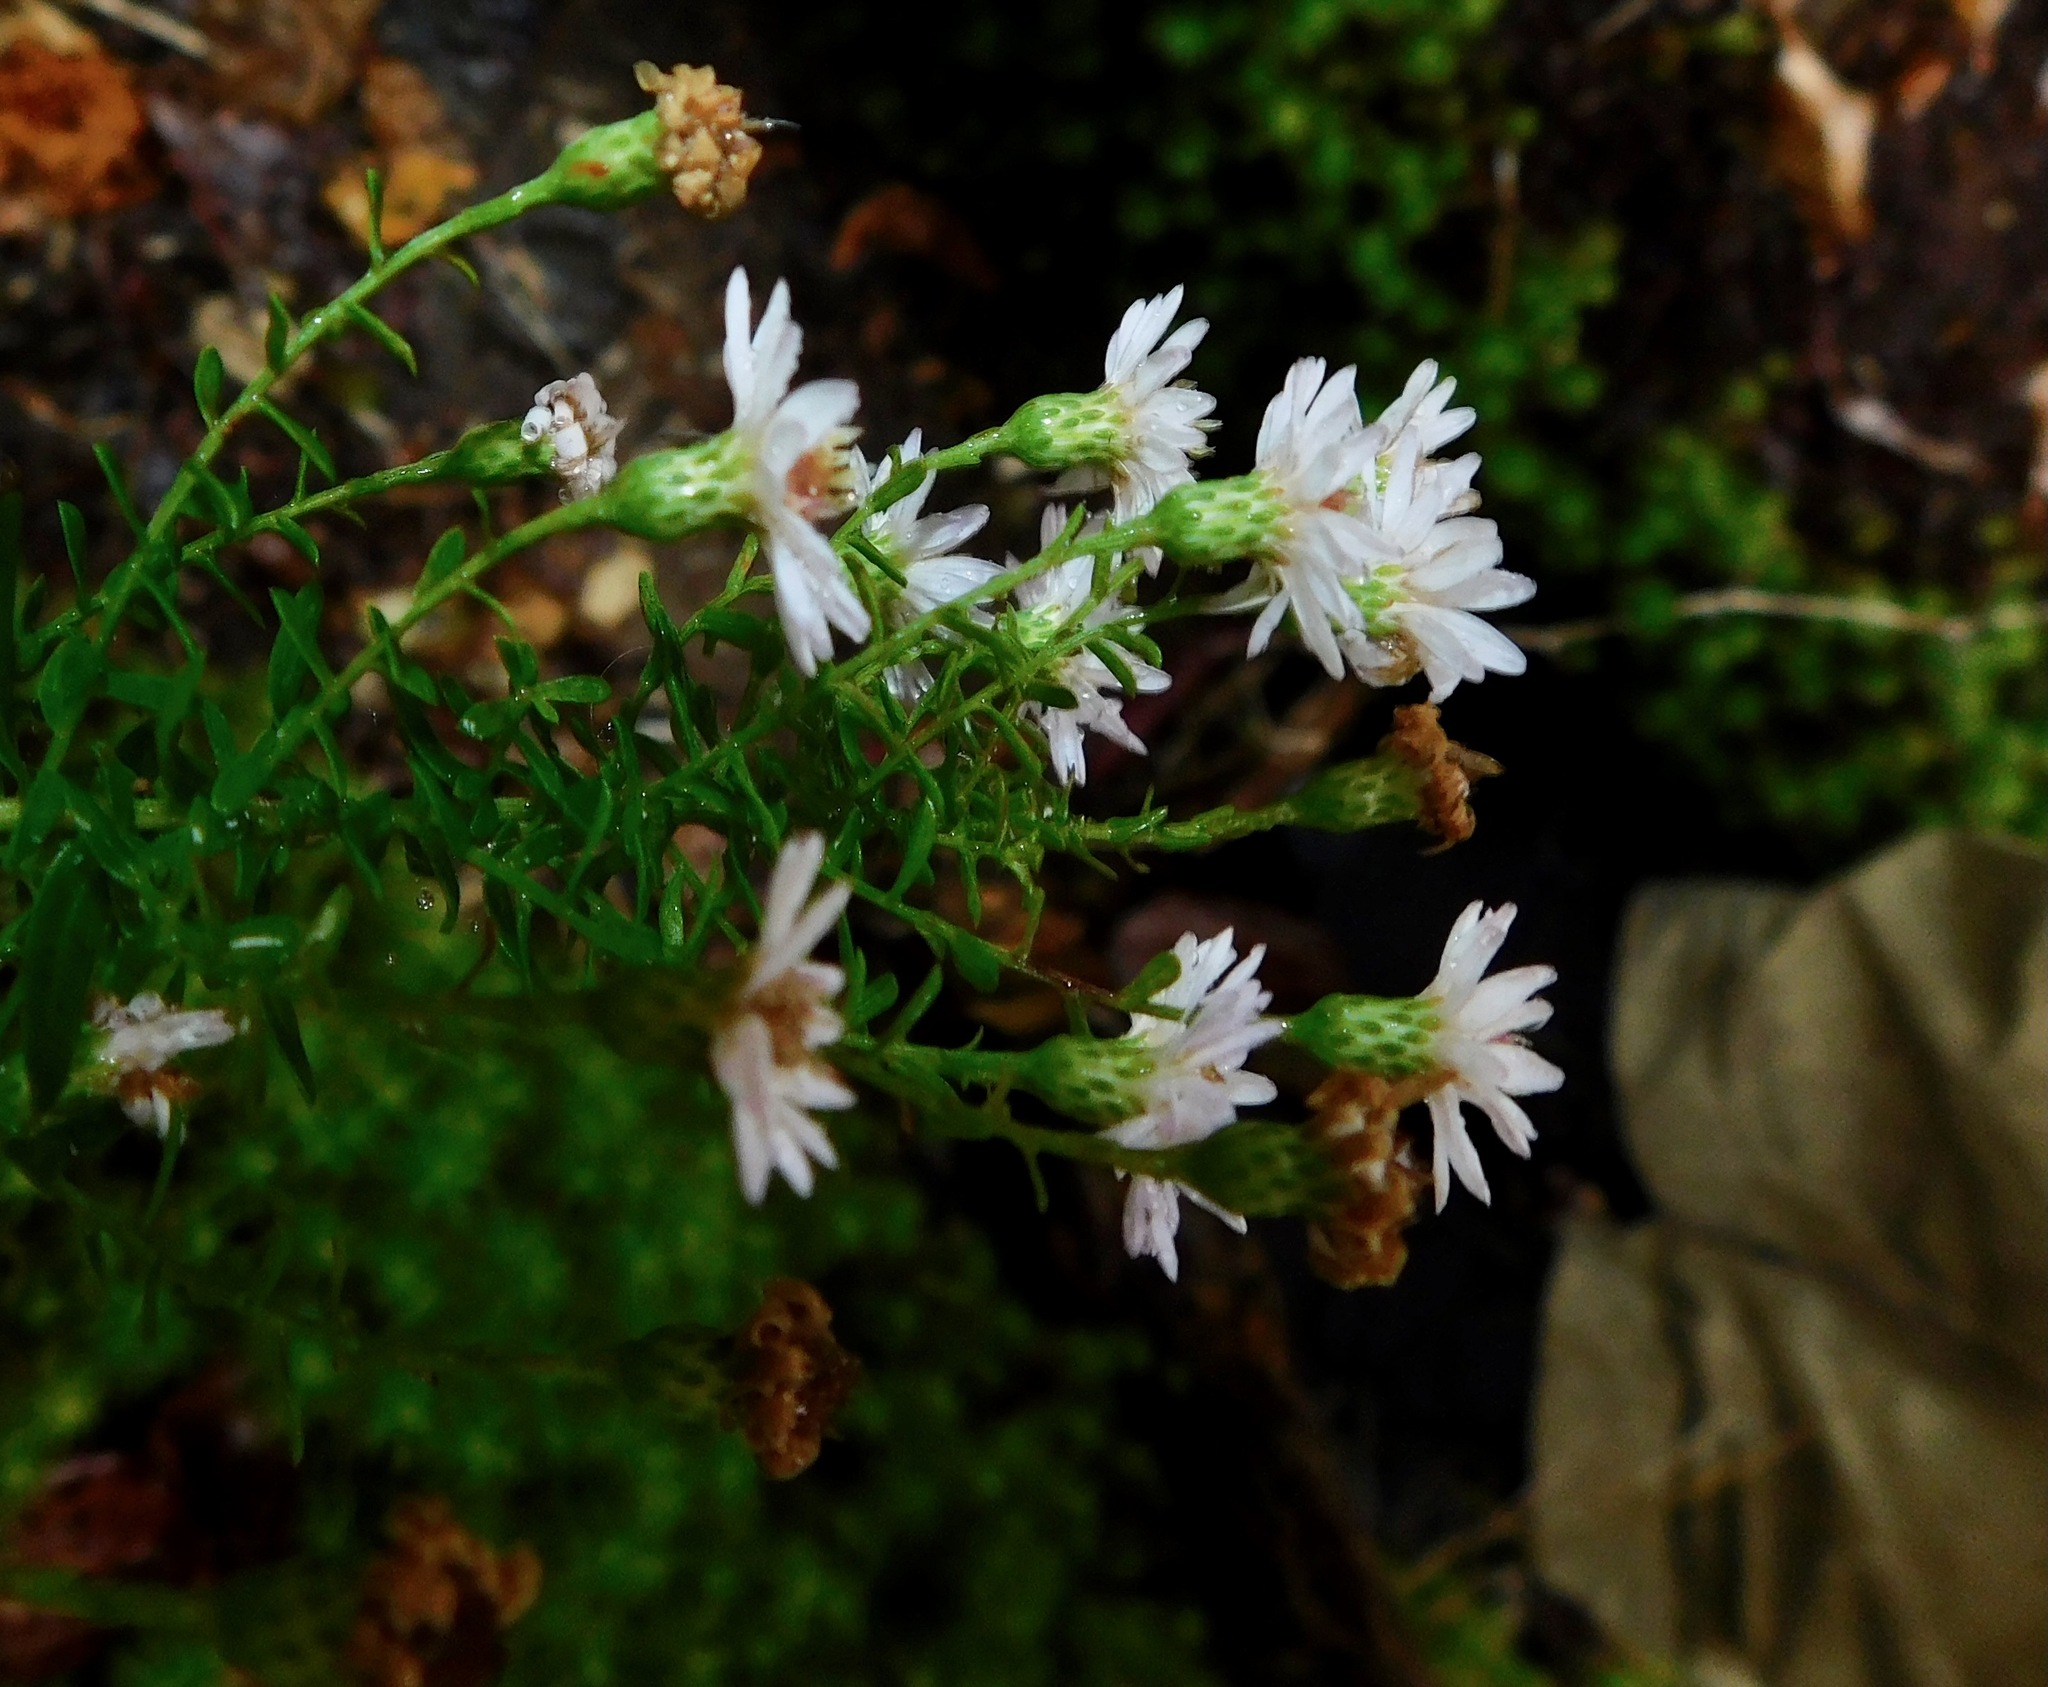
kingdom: Plantae
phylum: Tracheophyta
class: Magnoliopsida
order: Asterales
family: Asteraceae
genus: Symphyotrichum
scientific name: Symphyotrichum lanceolatum
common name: Panicled aster
